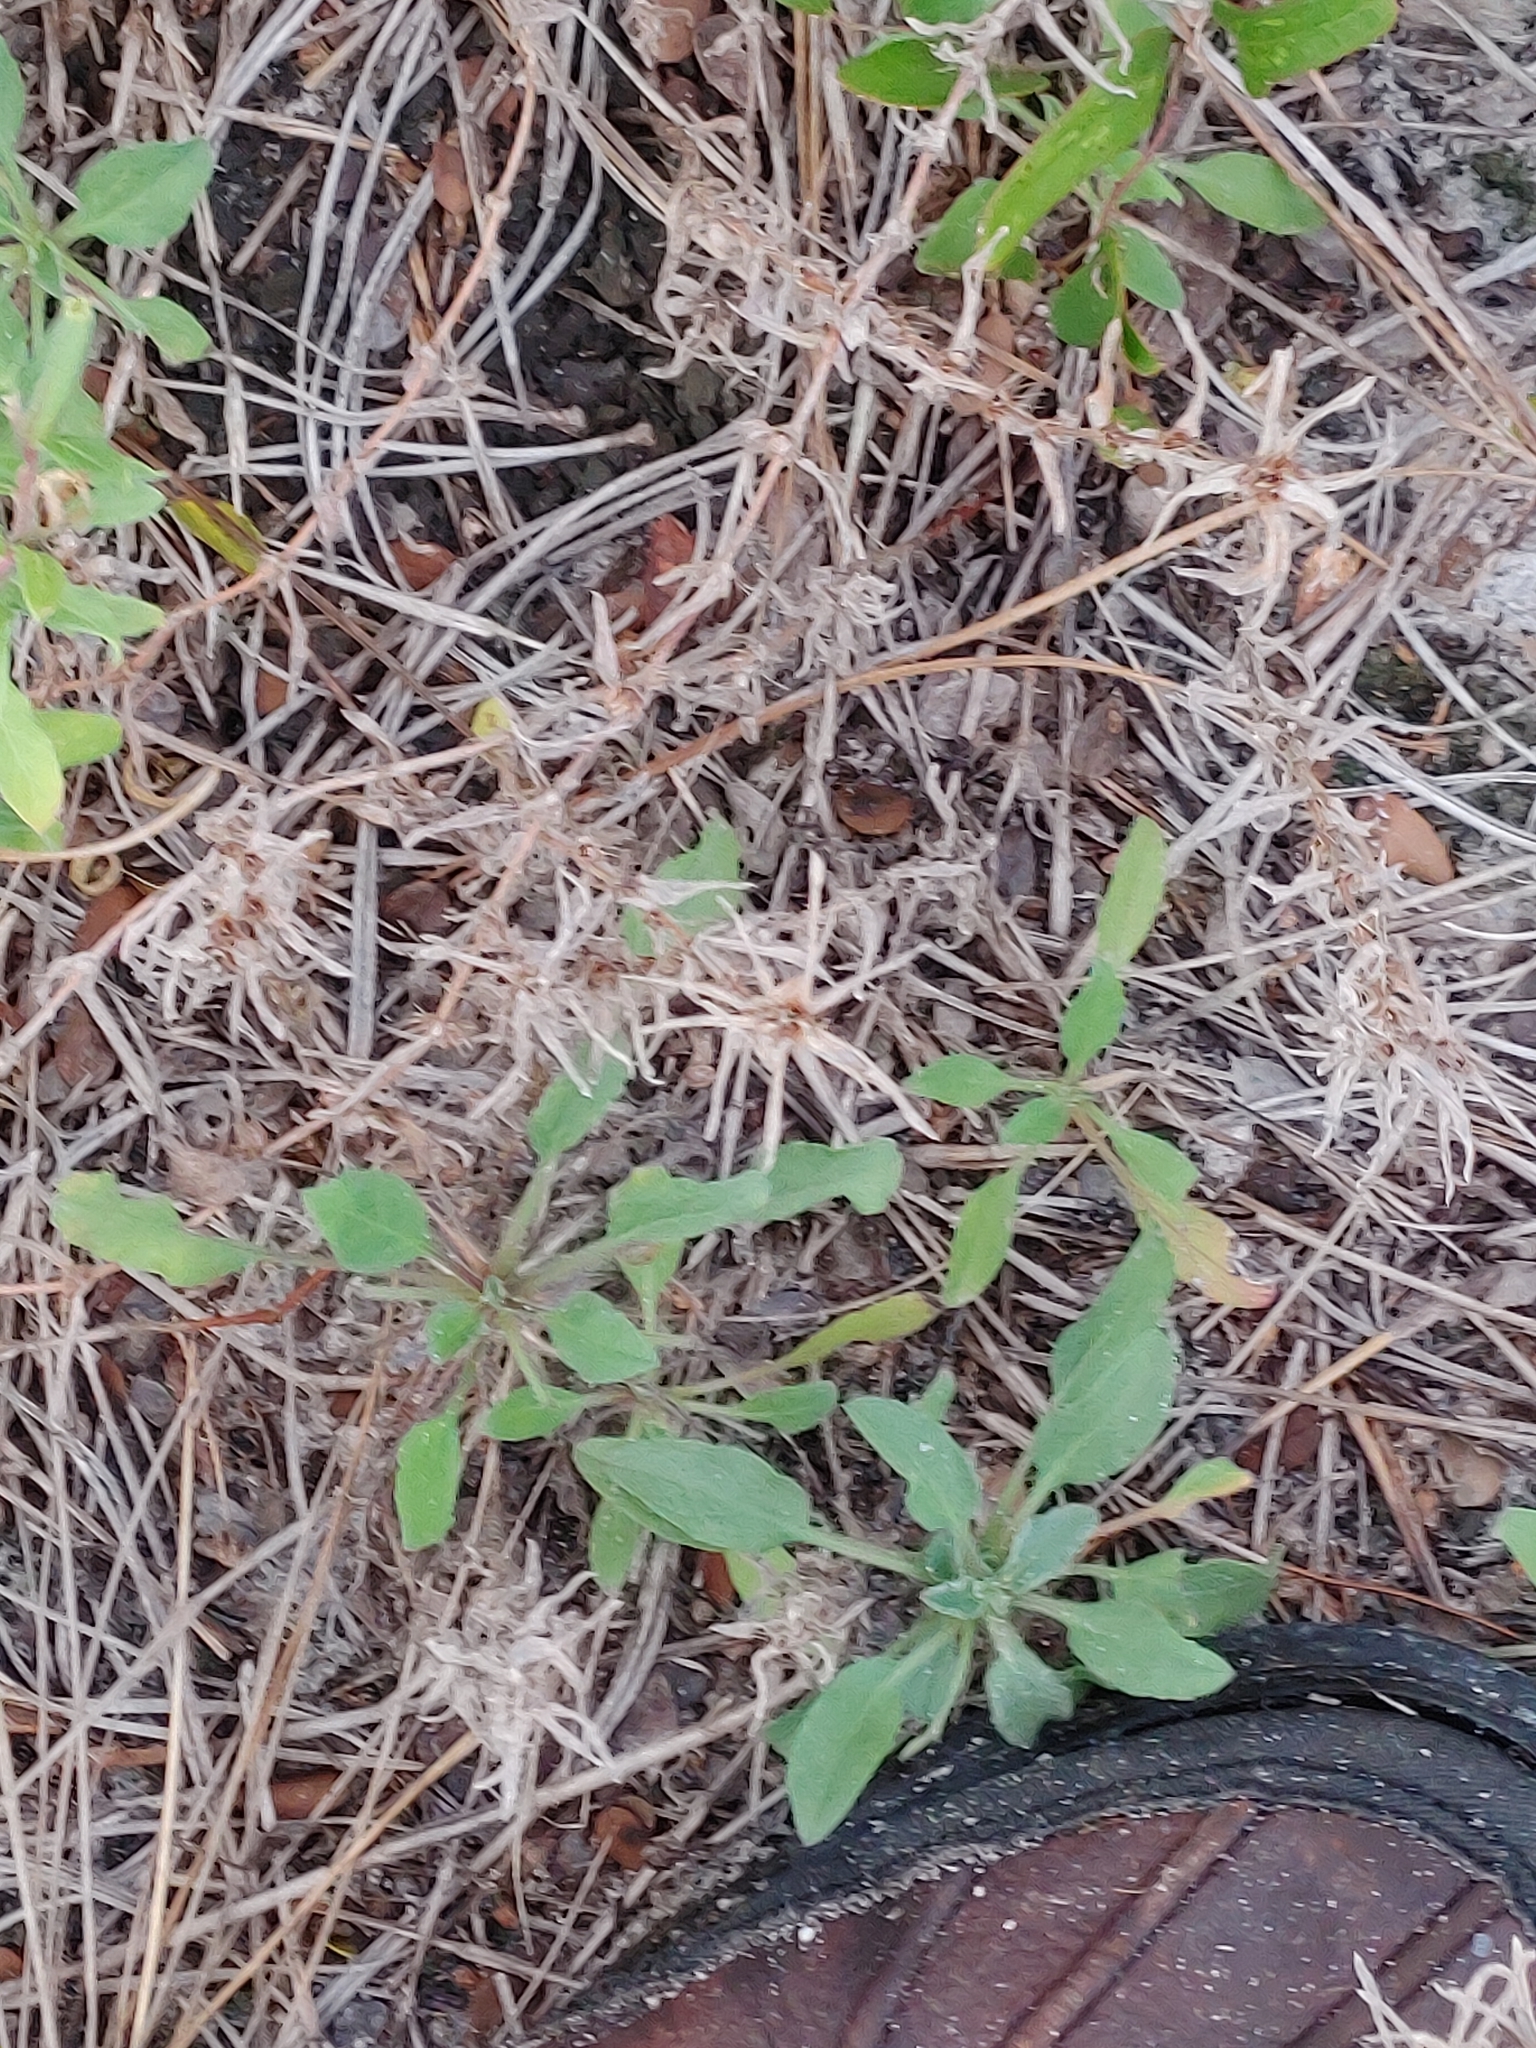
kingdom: Plantae
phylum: Tracheophyta
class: Magnoliopsida
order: Asterales
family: Asteraceae
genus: Heterotheca
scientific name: Heterotheca subaxillaris
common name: Camphorweed
